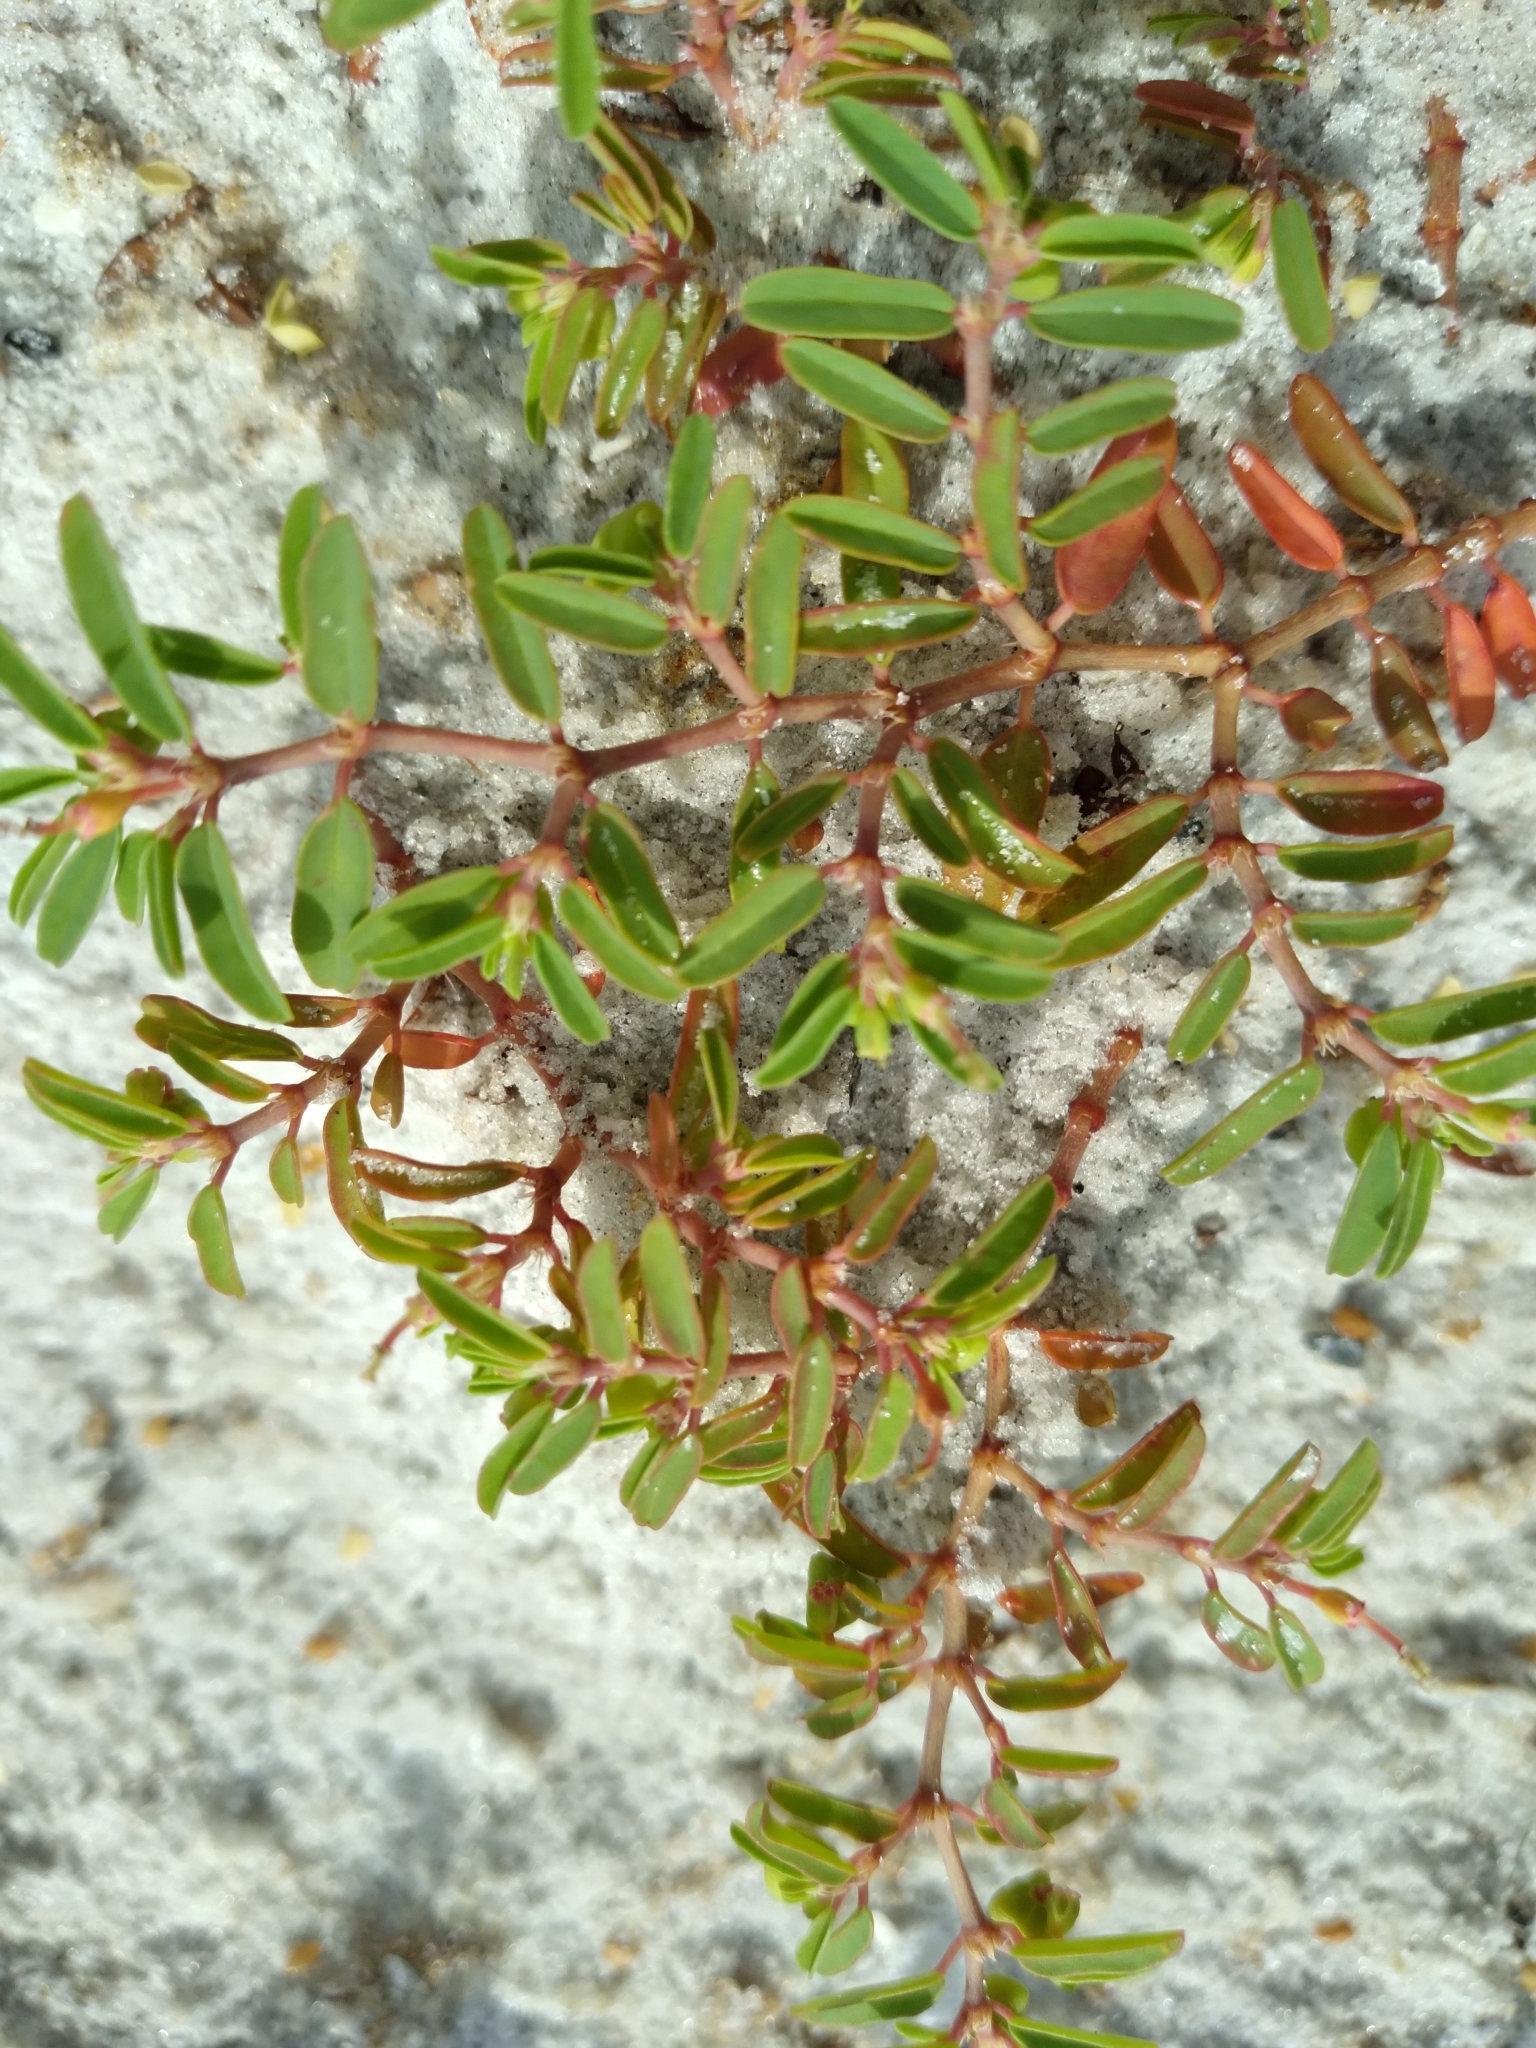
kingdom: Plantae
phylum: Tracheophyta
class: Magnoliopsida
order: Malpighiales
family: Euphorbiaceae
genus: Euphorbia
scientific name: Euphorbia bombensis
